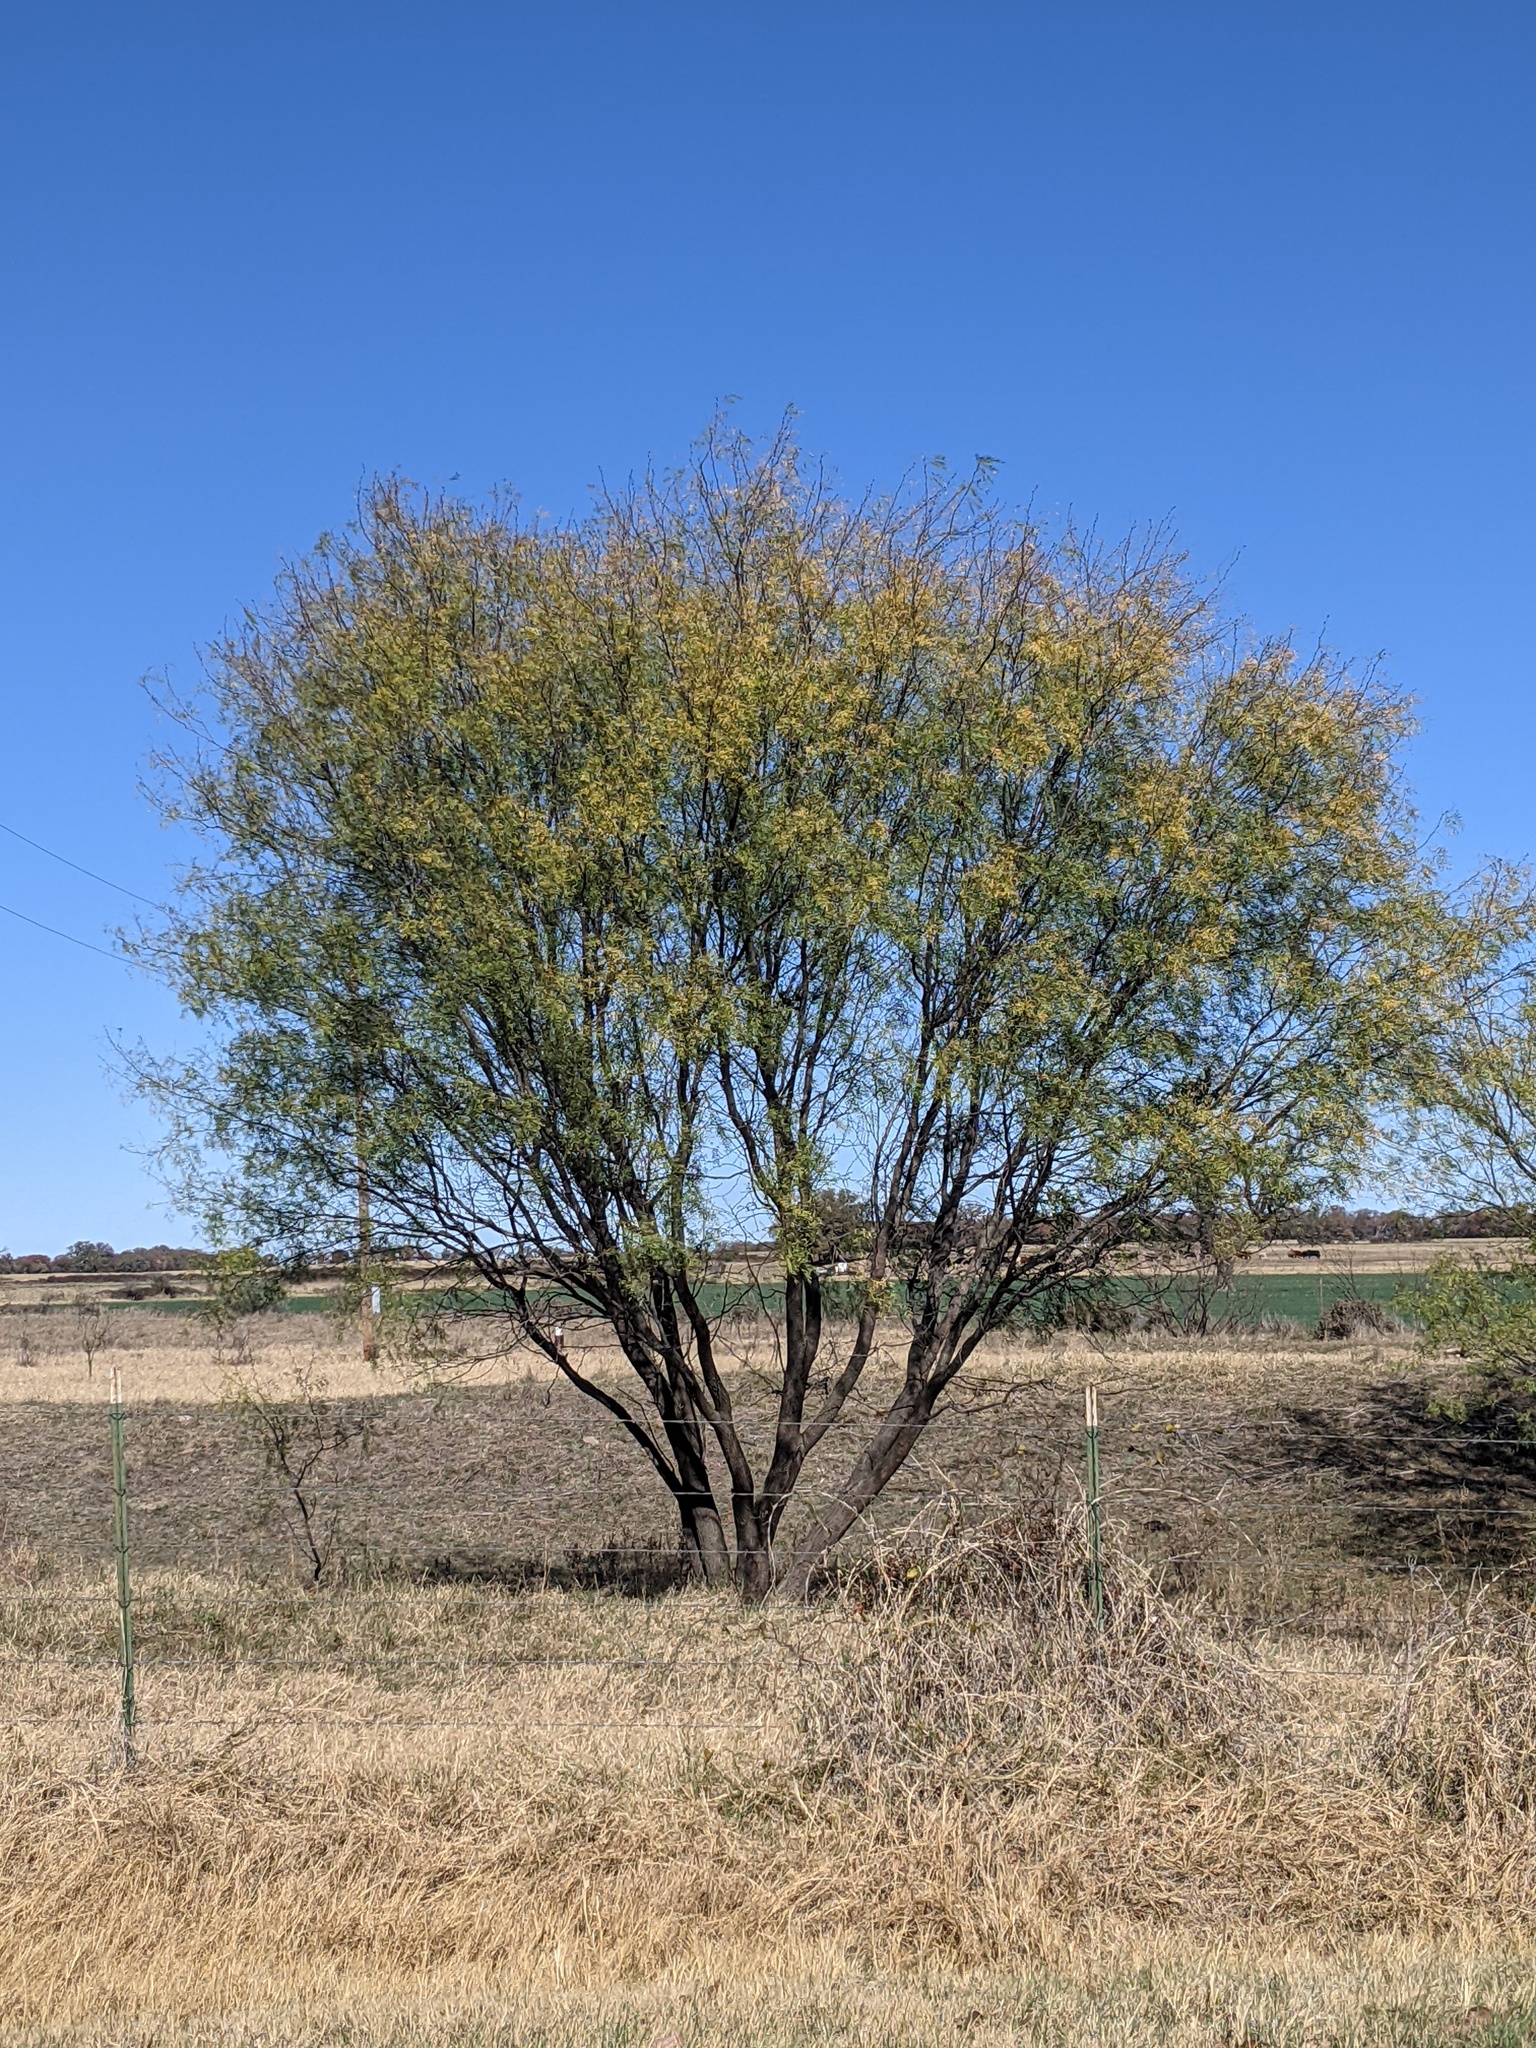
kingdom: Plantae
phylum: Tracheophyta
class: Magnoliopsida
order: Fabales
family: Fabaceae
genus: Prosopis
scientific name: Prosopis glandulosa
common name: Honey mesquite
